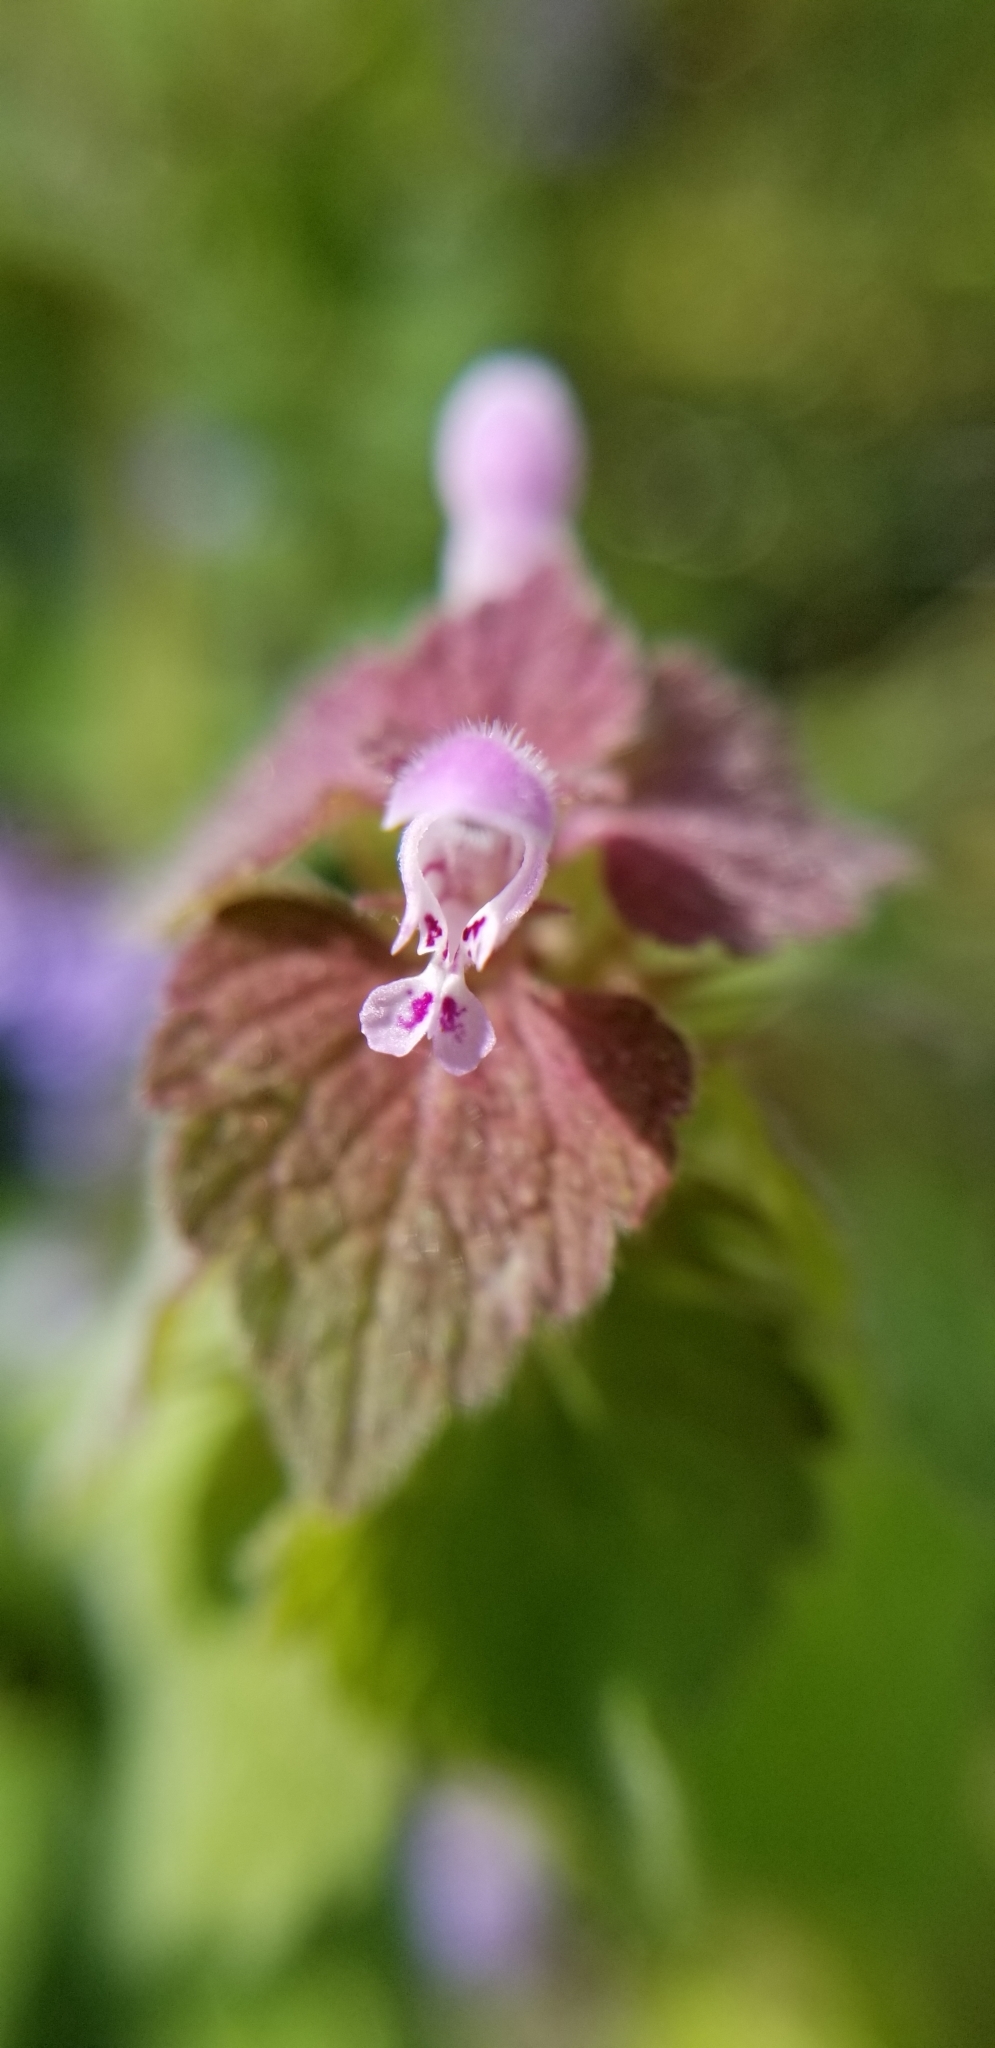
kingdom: Plantae
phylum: Tracheophyta
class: Magnoliopsida
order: Lamiales
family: Lamiaceae
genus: Lamium
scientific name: Lamium purpureum
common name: Red dead-nettle
